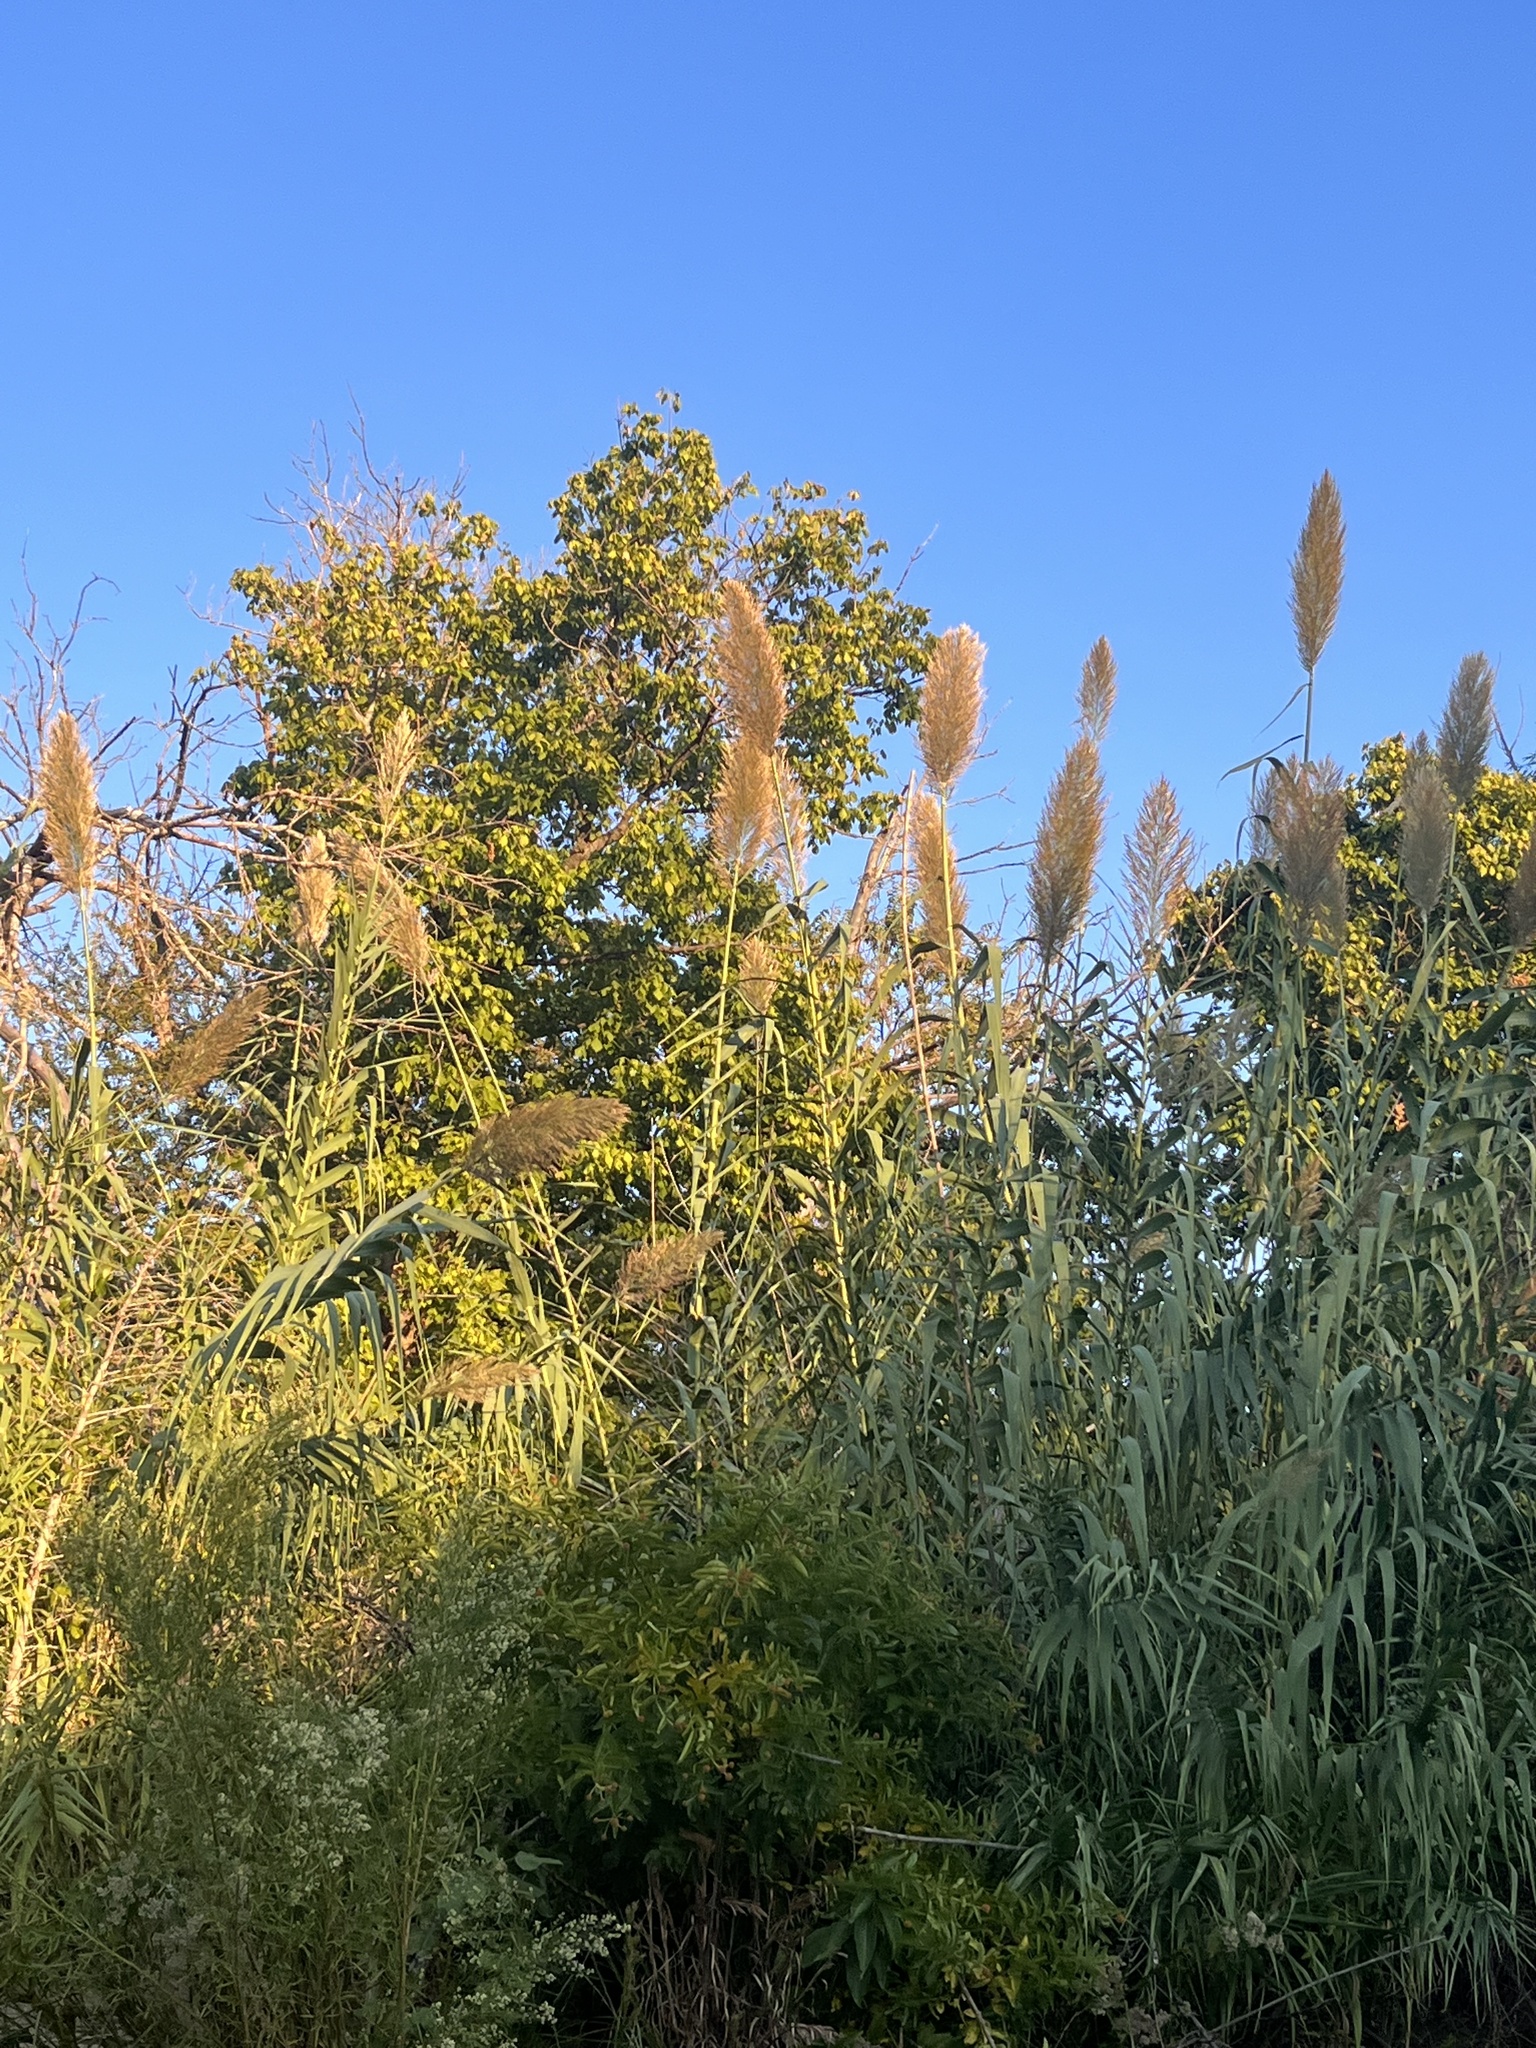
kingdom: Plantae
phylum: Tracheophyta
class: Liliopsida
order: Poales
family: Poaceae
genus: Arundo
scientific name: Arundo donax
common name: Giant reed
